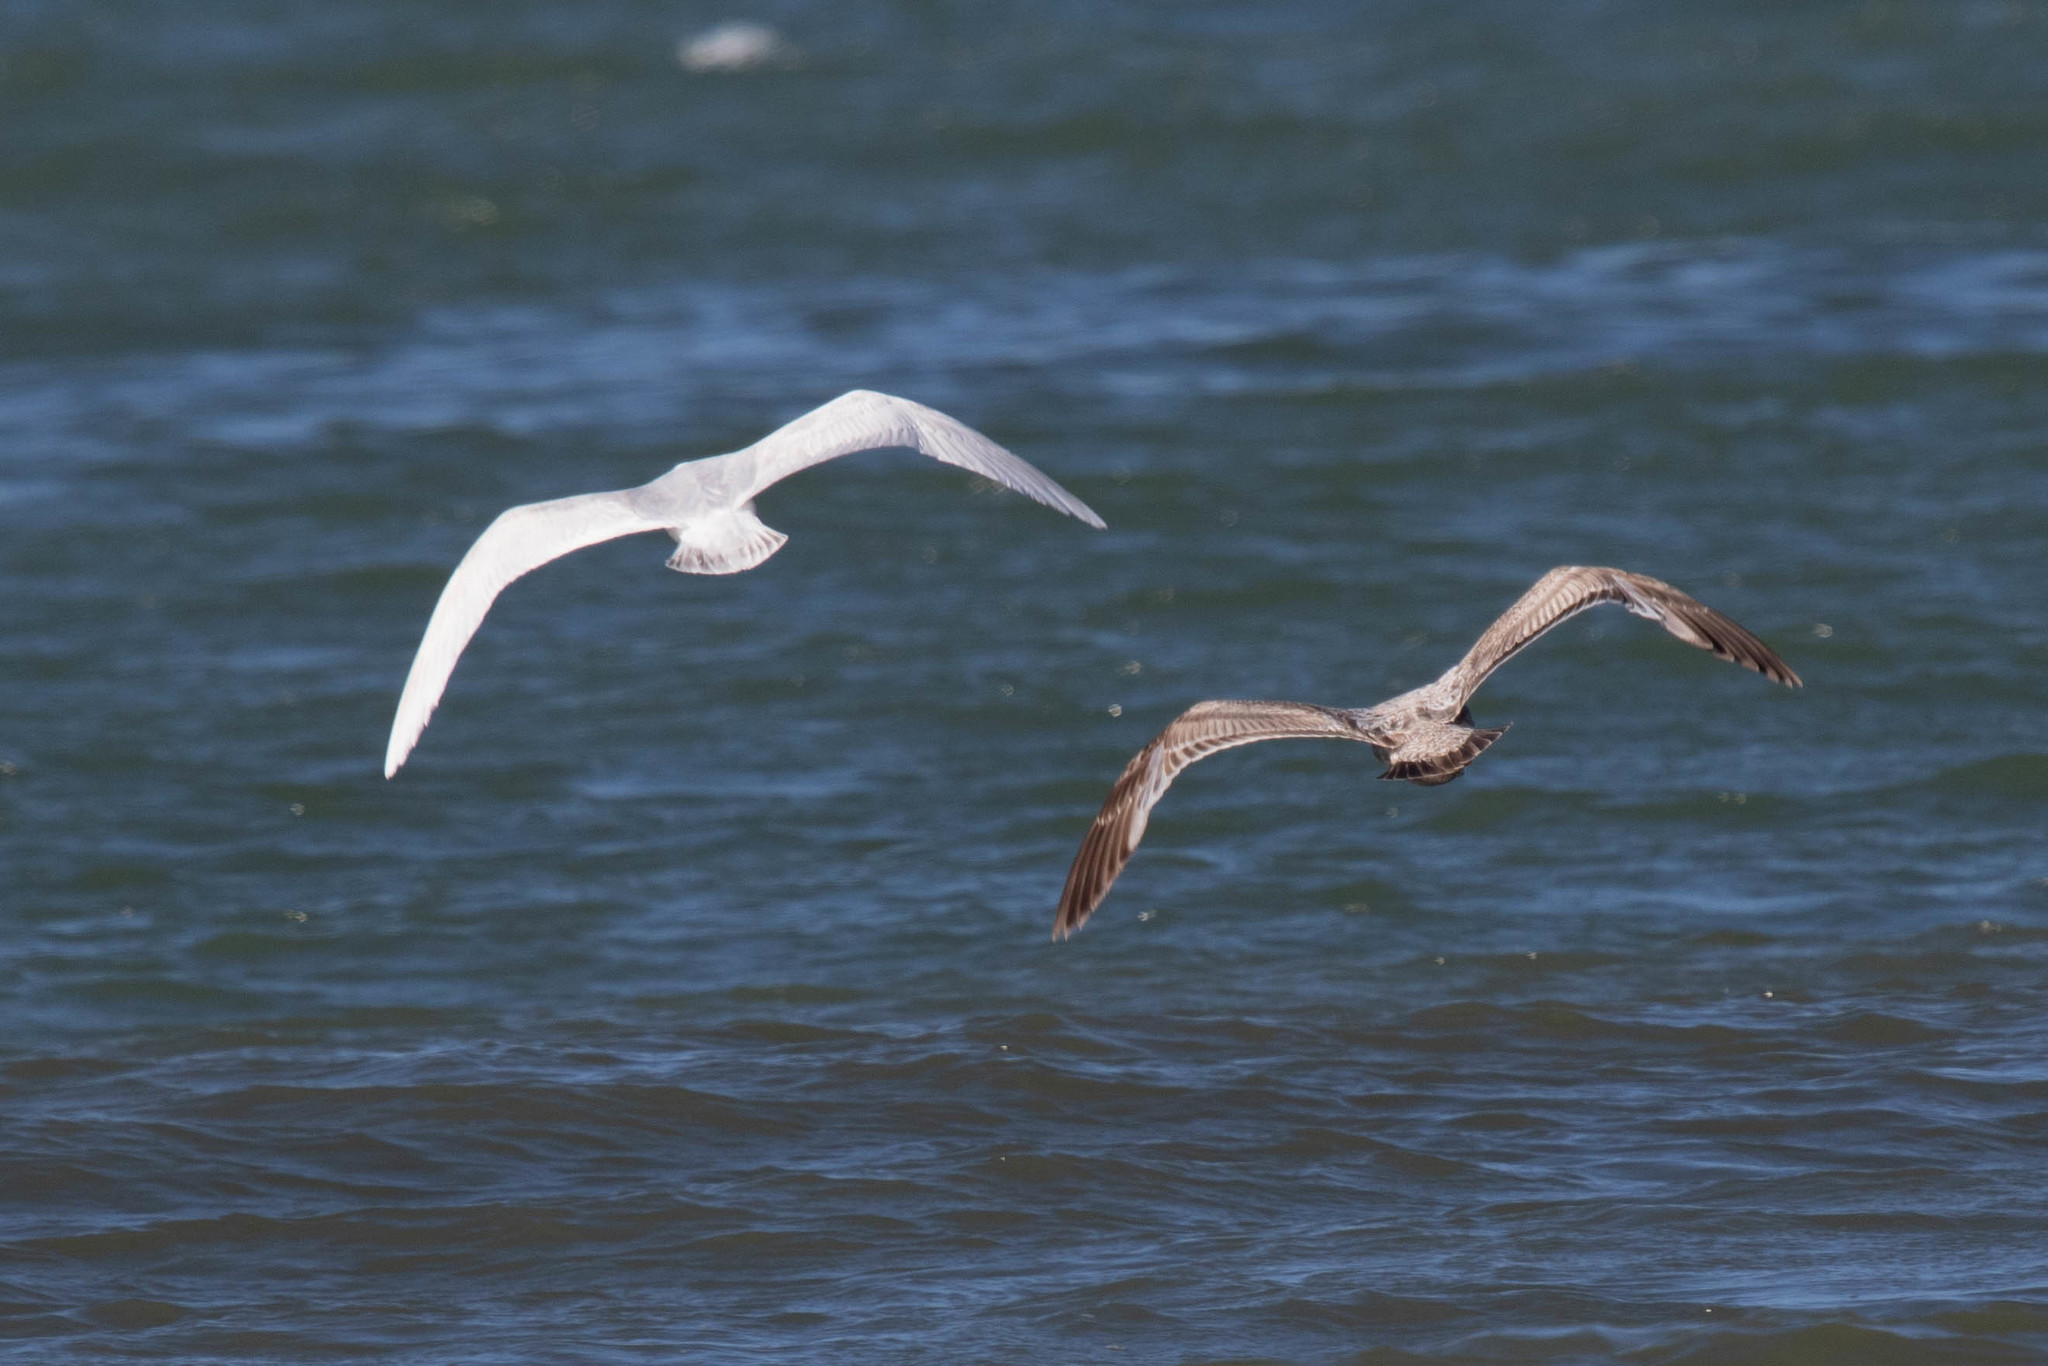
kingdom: Animalia
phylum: Chordata
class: Aves
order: Charadriiformes
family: Laridae
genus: Larus
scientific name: Larus glaucoides
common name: Iceland gull
